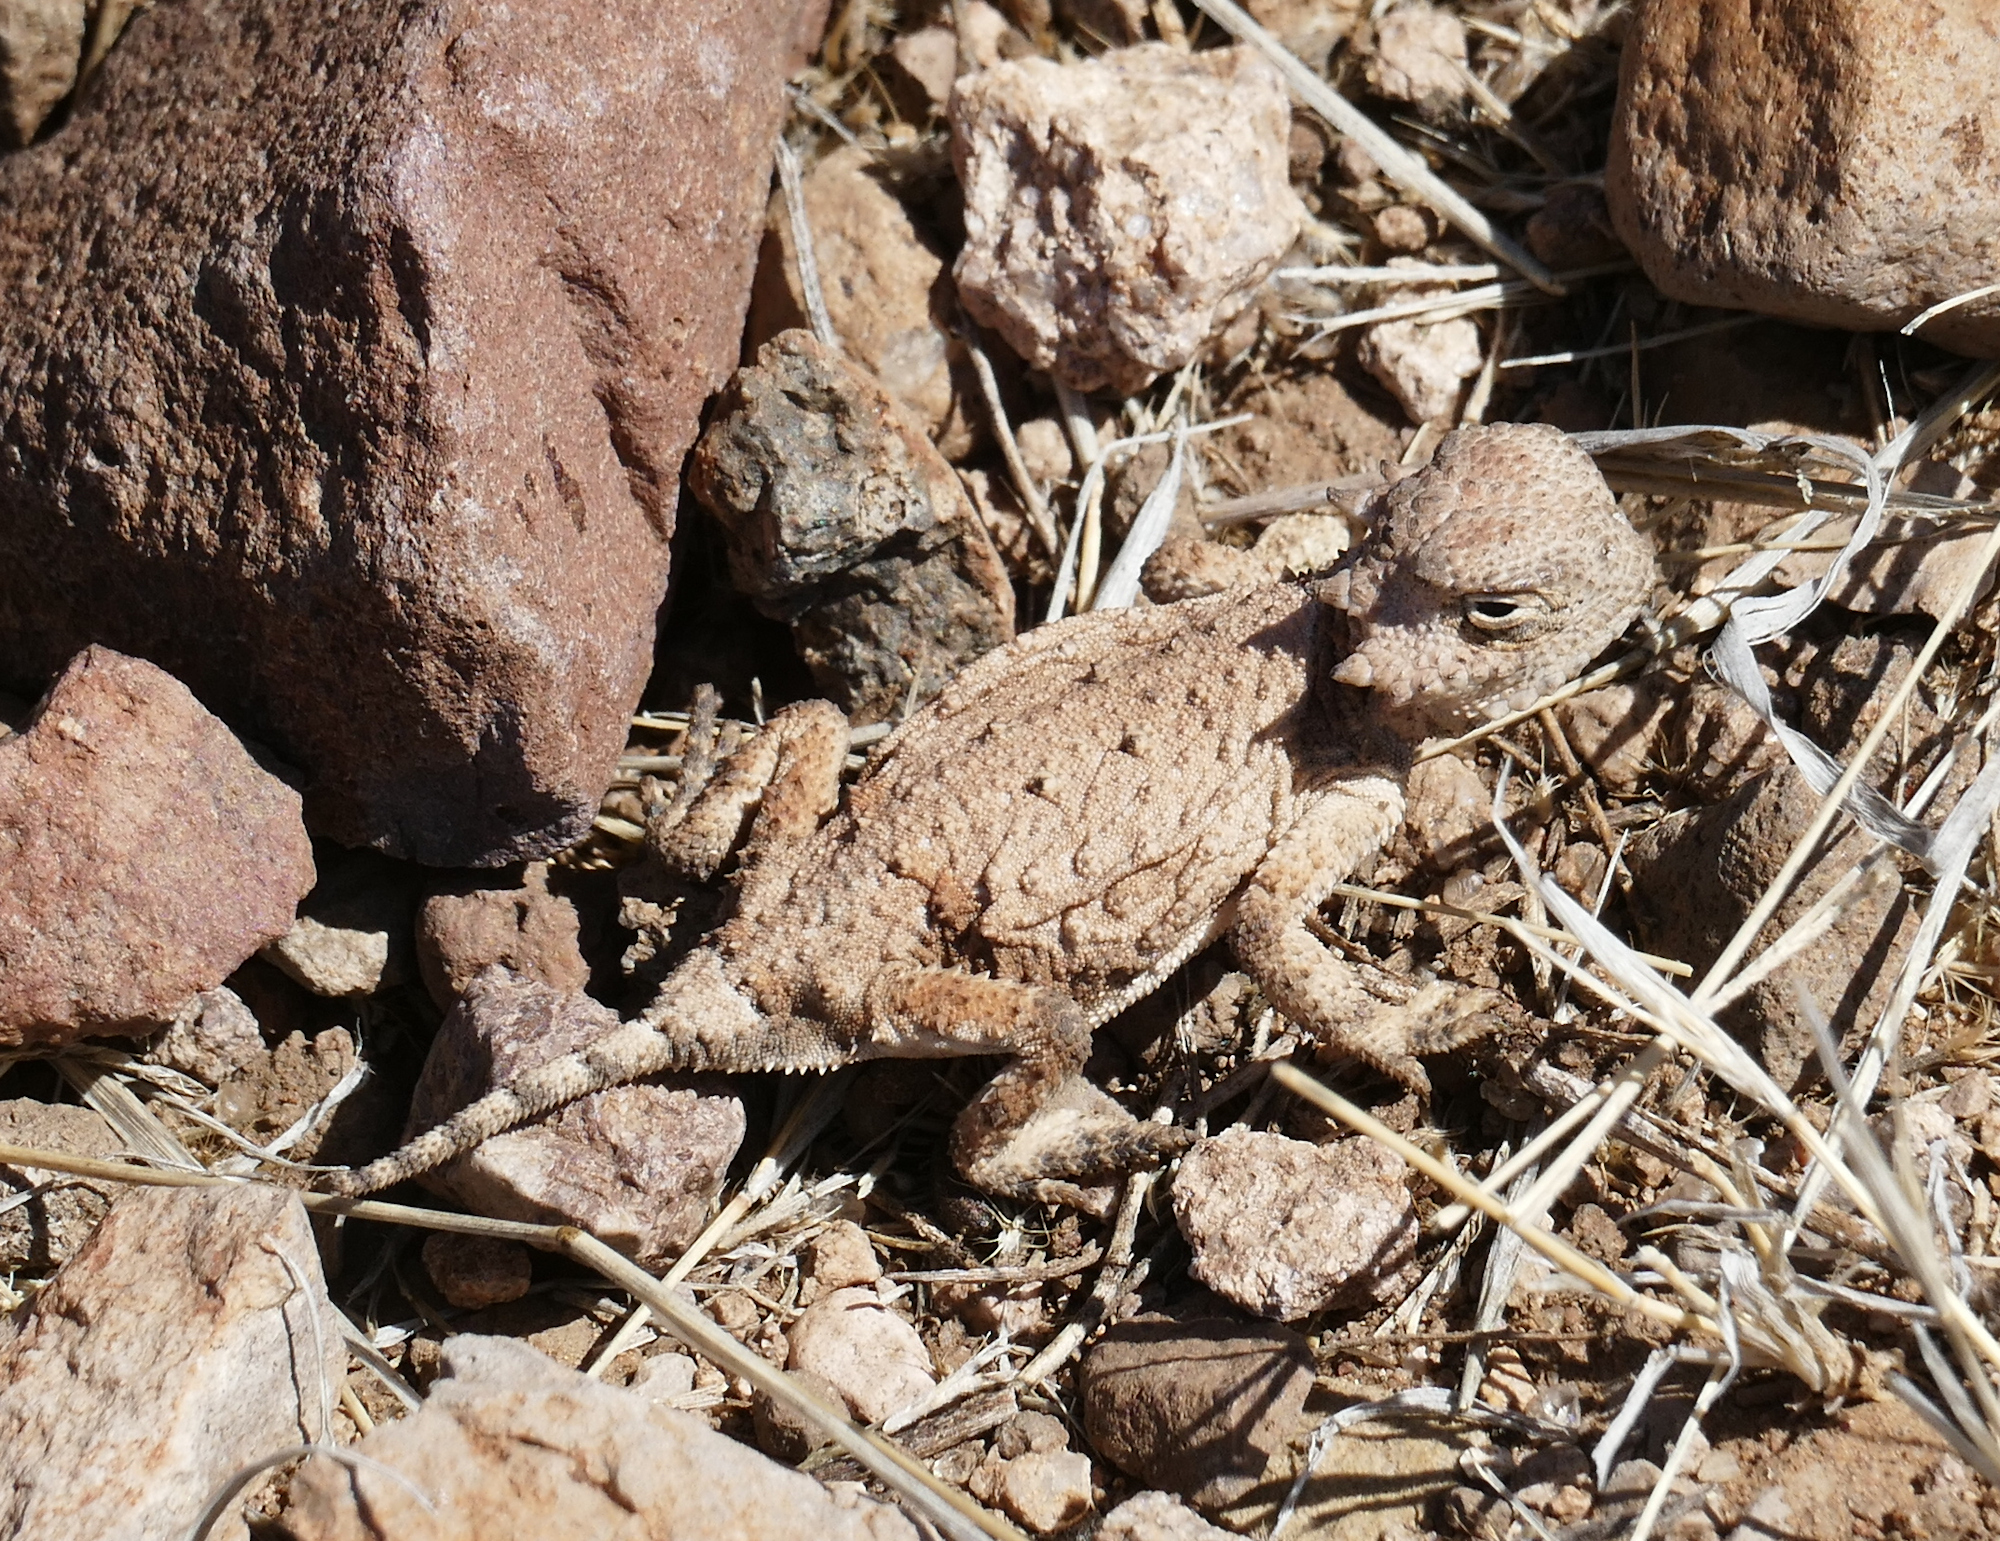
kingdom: Animalia
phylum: Chordata
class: Squamata
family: Phrynosomatidae
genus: Phrynosoma
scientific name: Phrynosoma modestum
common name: Roundtail horned lizard
